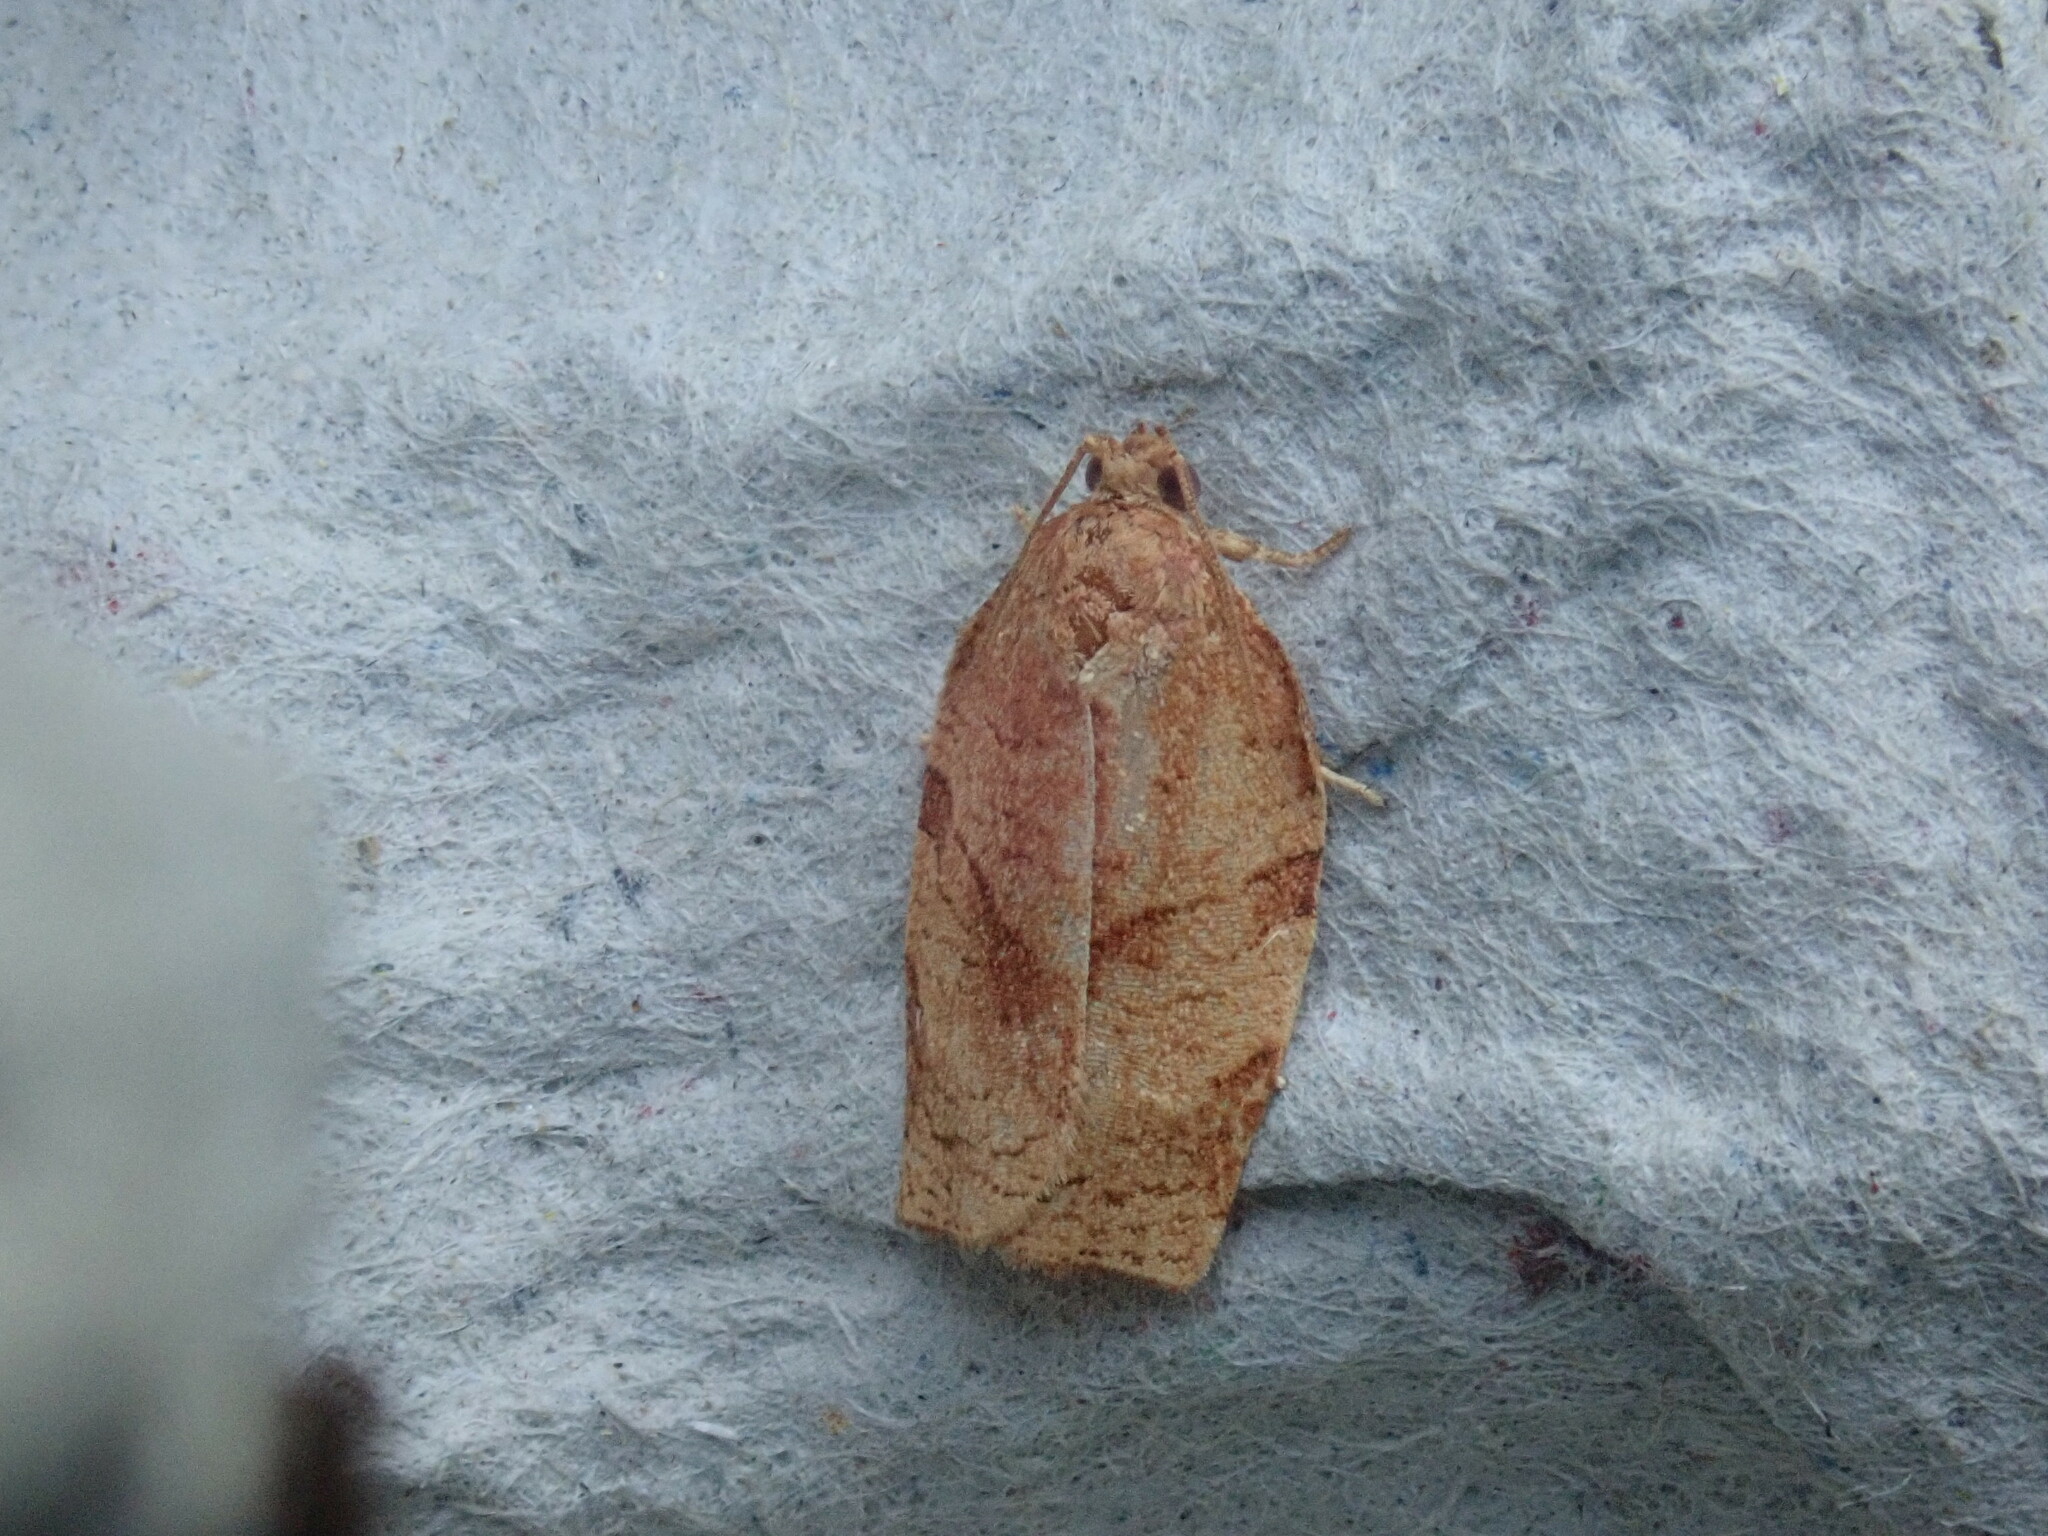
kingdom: Animalia
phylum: Arthropoda
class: Insecta
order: Lepidoptera
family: Tortricidae
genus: Choristoneura
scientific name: Choristoneura rosaceana
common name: Oblique-banded leafroller moth
